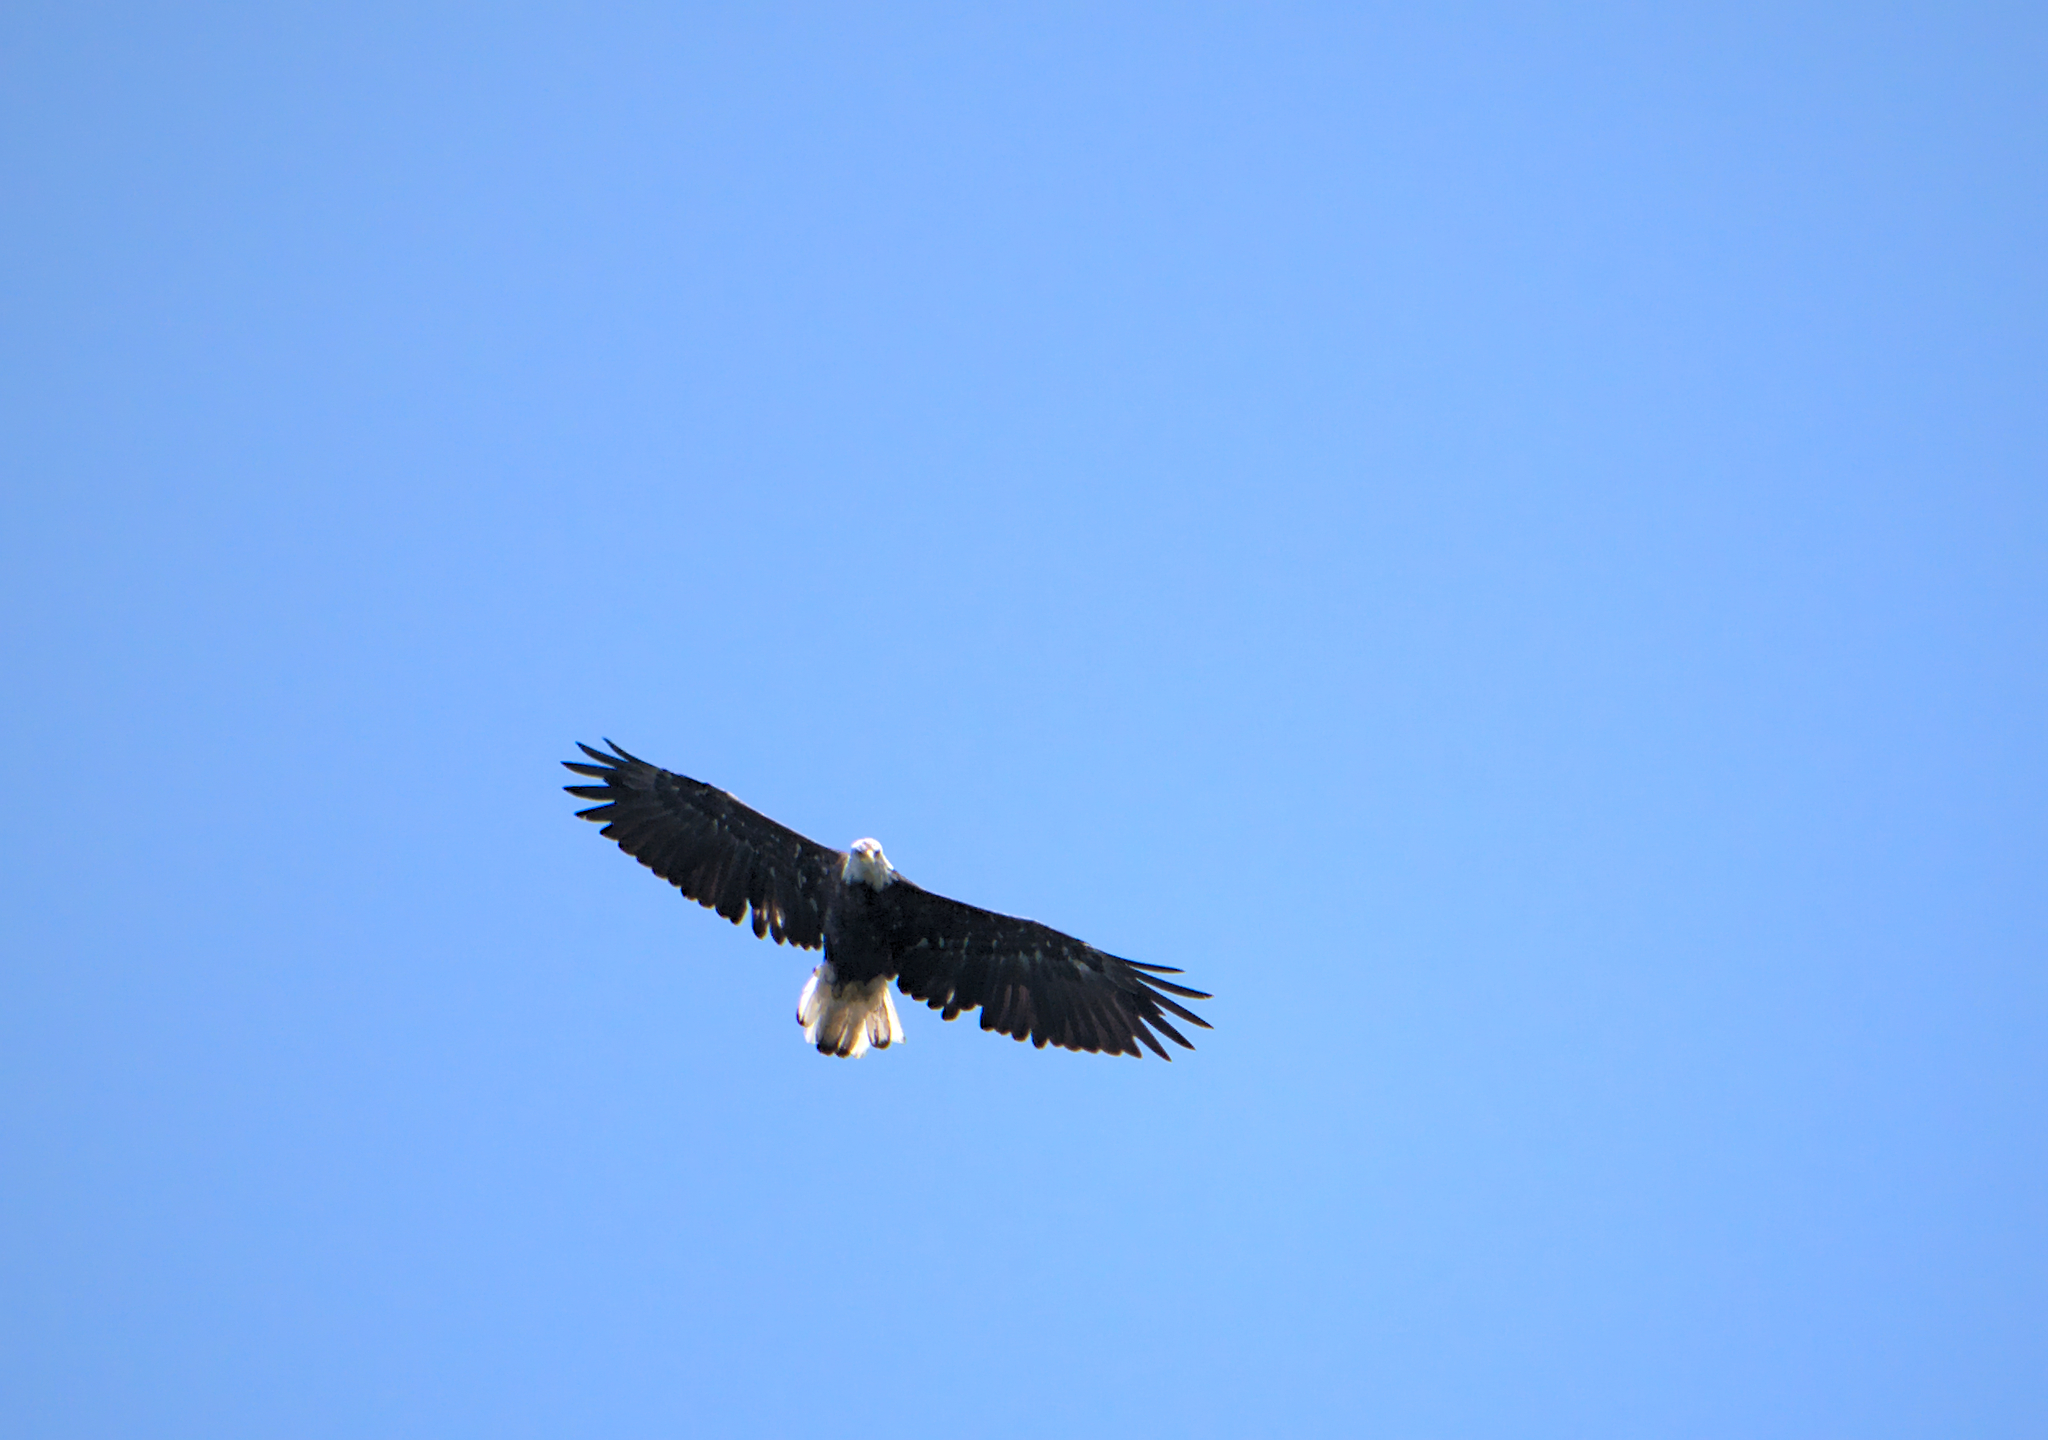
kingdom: Animalia
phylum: Chordata
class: Aves
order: Accipitriformes
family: Accipitridae
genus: Haliaeetus
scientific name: Haliaeetus leucocephalus
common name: Bald eagle
